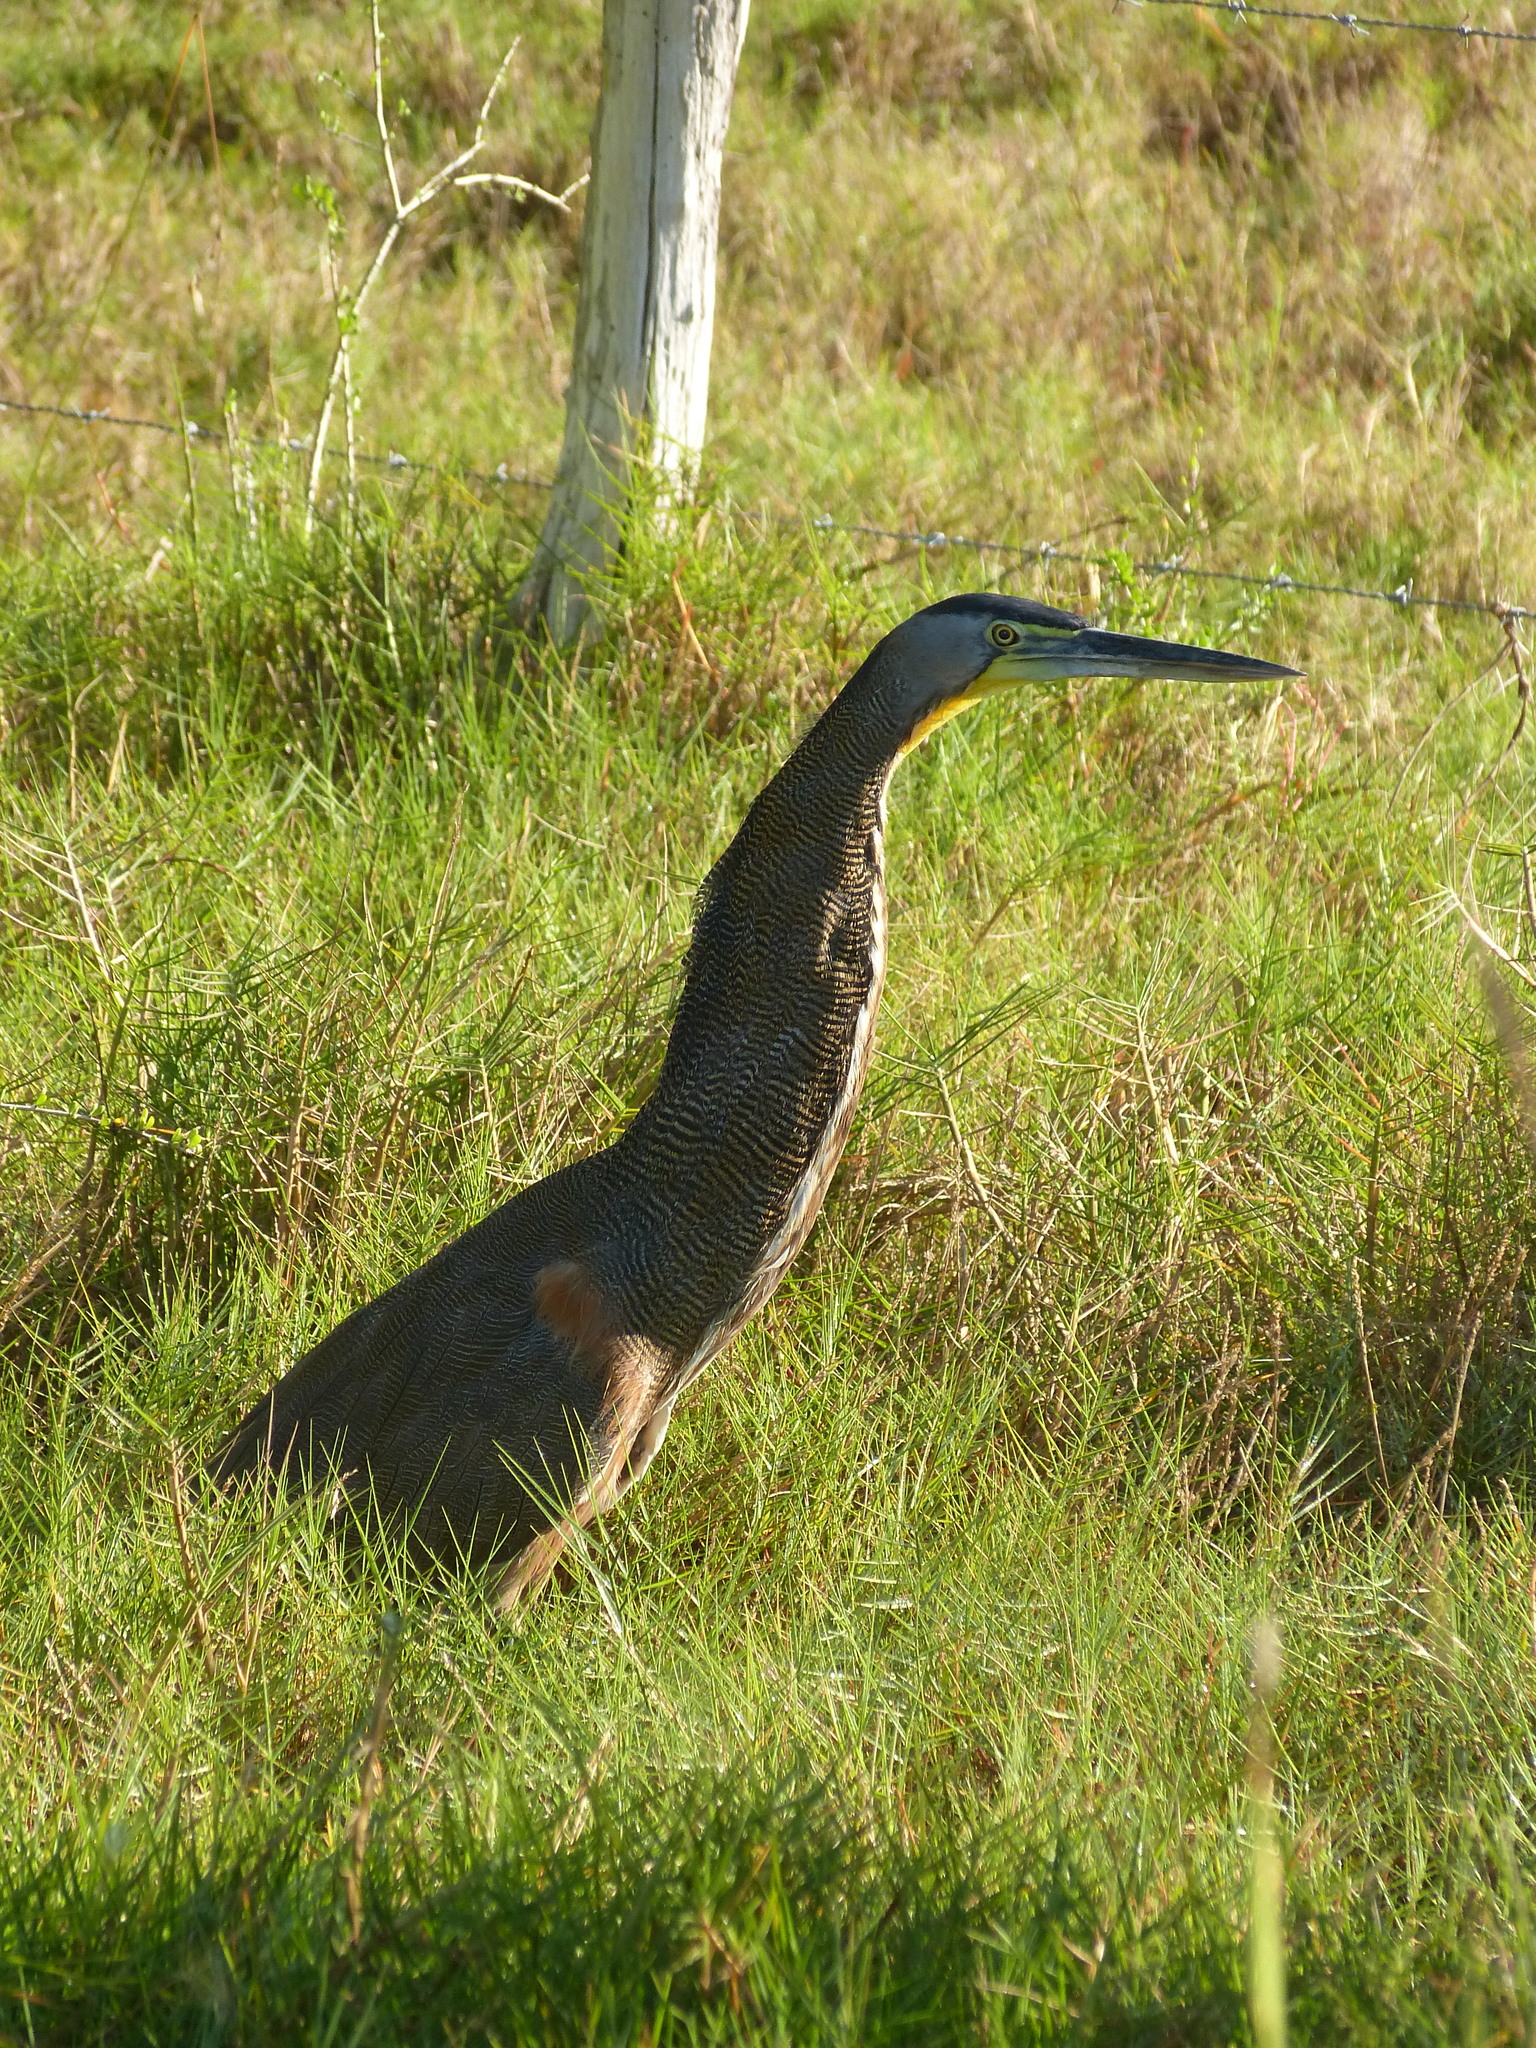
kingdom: Animalia
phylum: Chordata
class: Aves
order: Pelecaniformes
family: Ardeidae
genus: Tigrisoma
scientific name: Tigrisoma mexicanum
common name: Bare-throated tiger-heron
